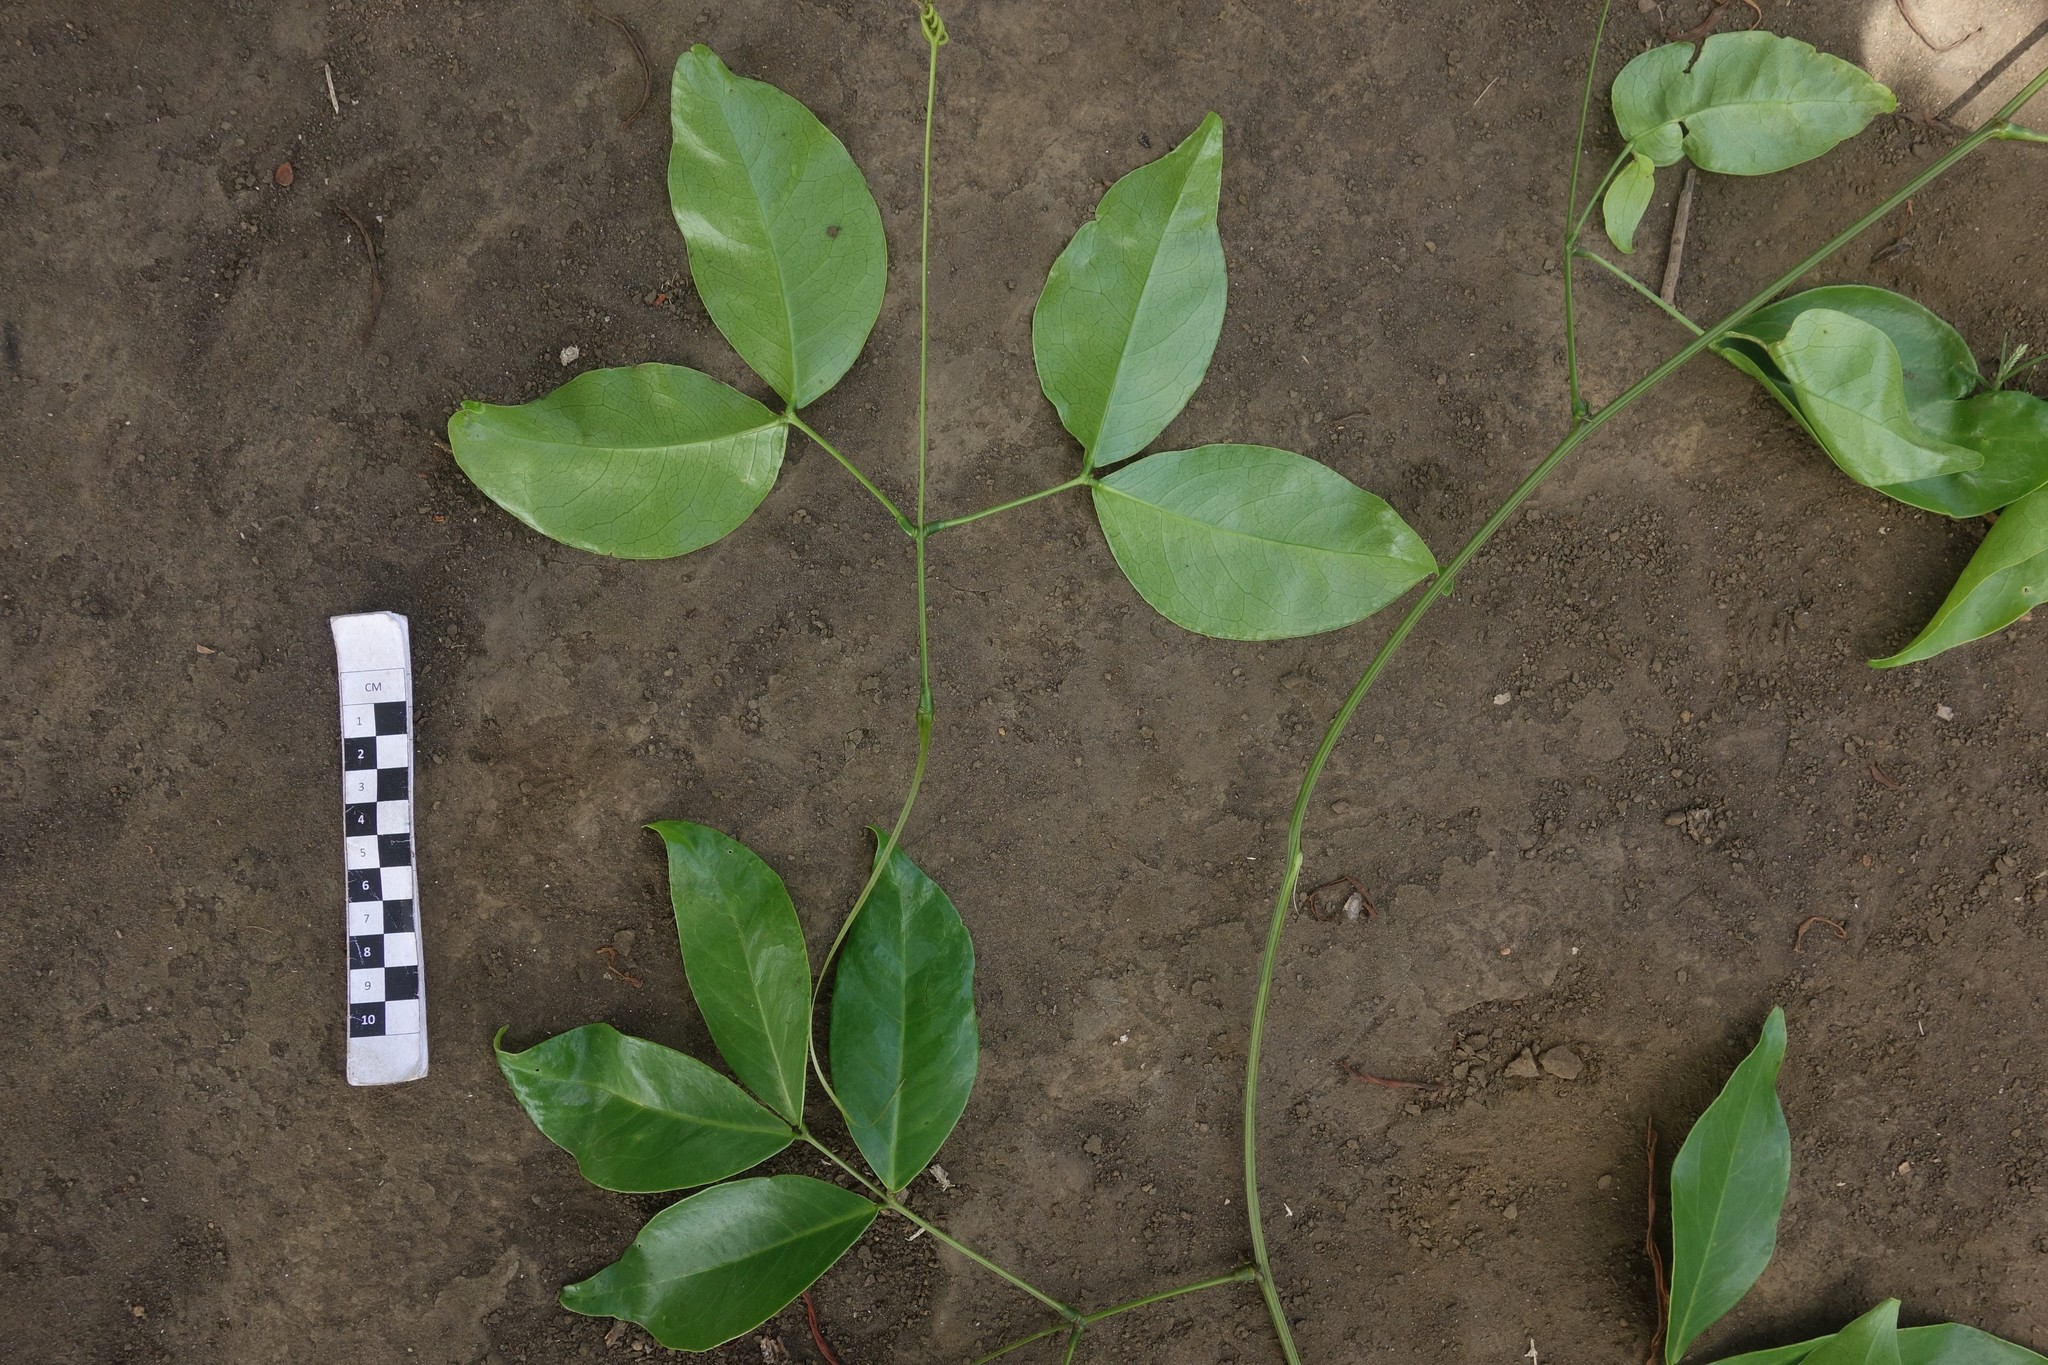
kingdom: Plantae
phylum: Tracheophyta
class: Magnoliopsida
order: Fabales
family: Fabaceae
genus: Entada
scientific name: Entada phaseoloides
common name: Matchbox-bean
